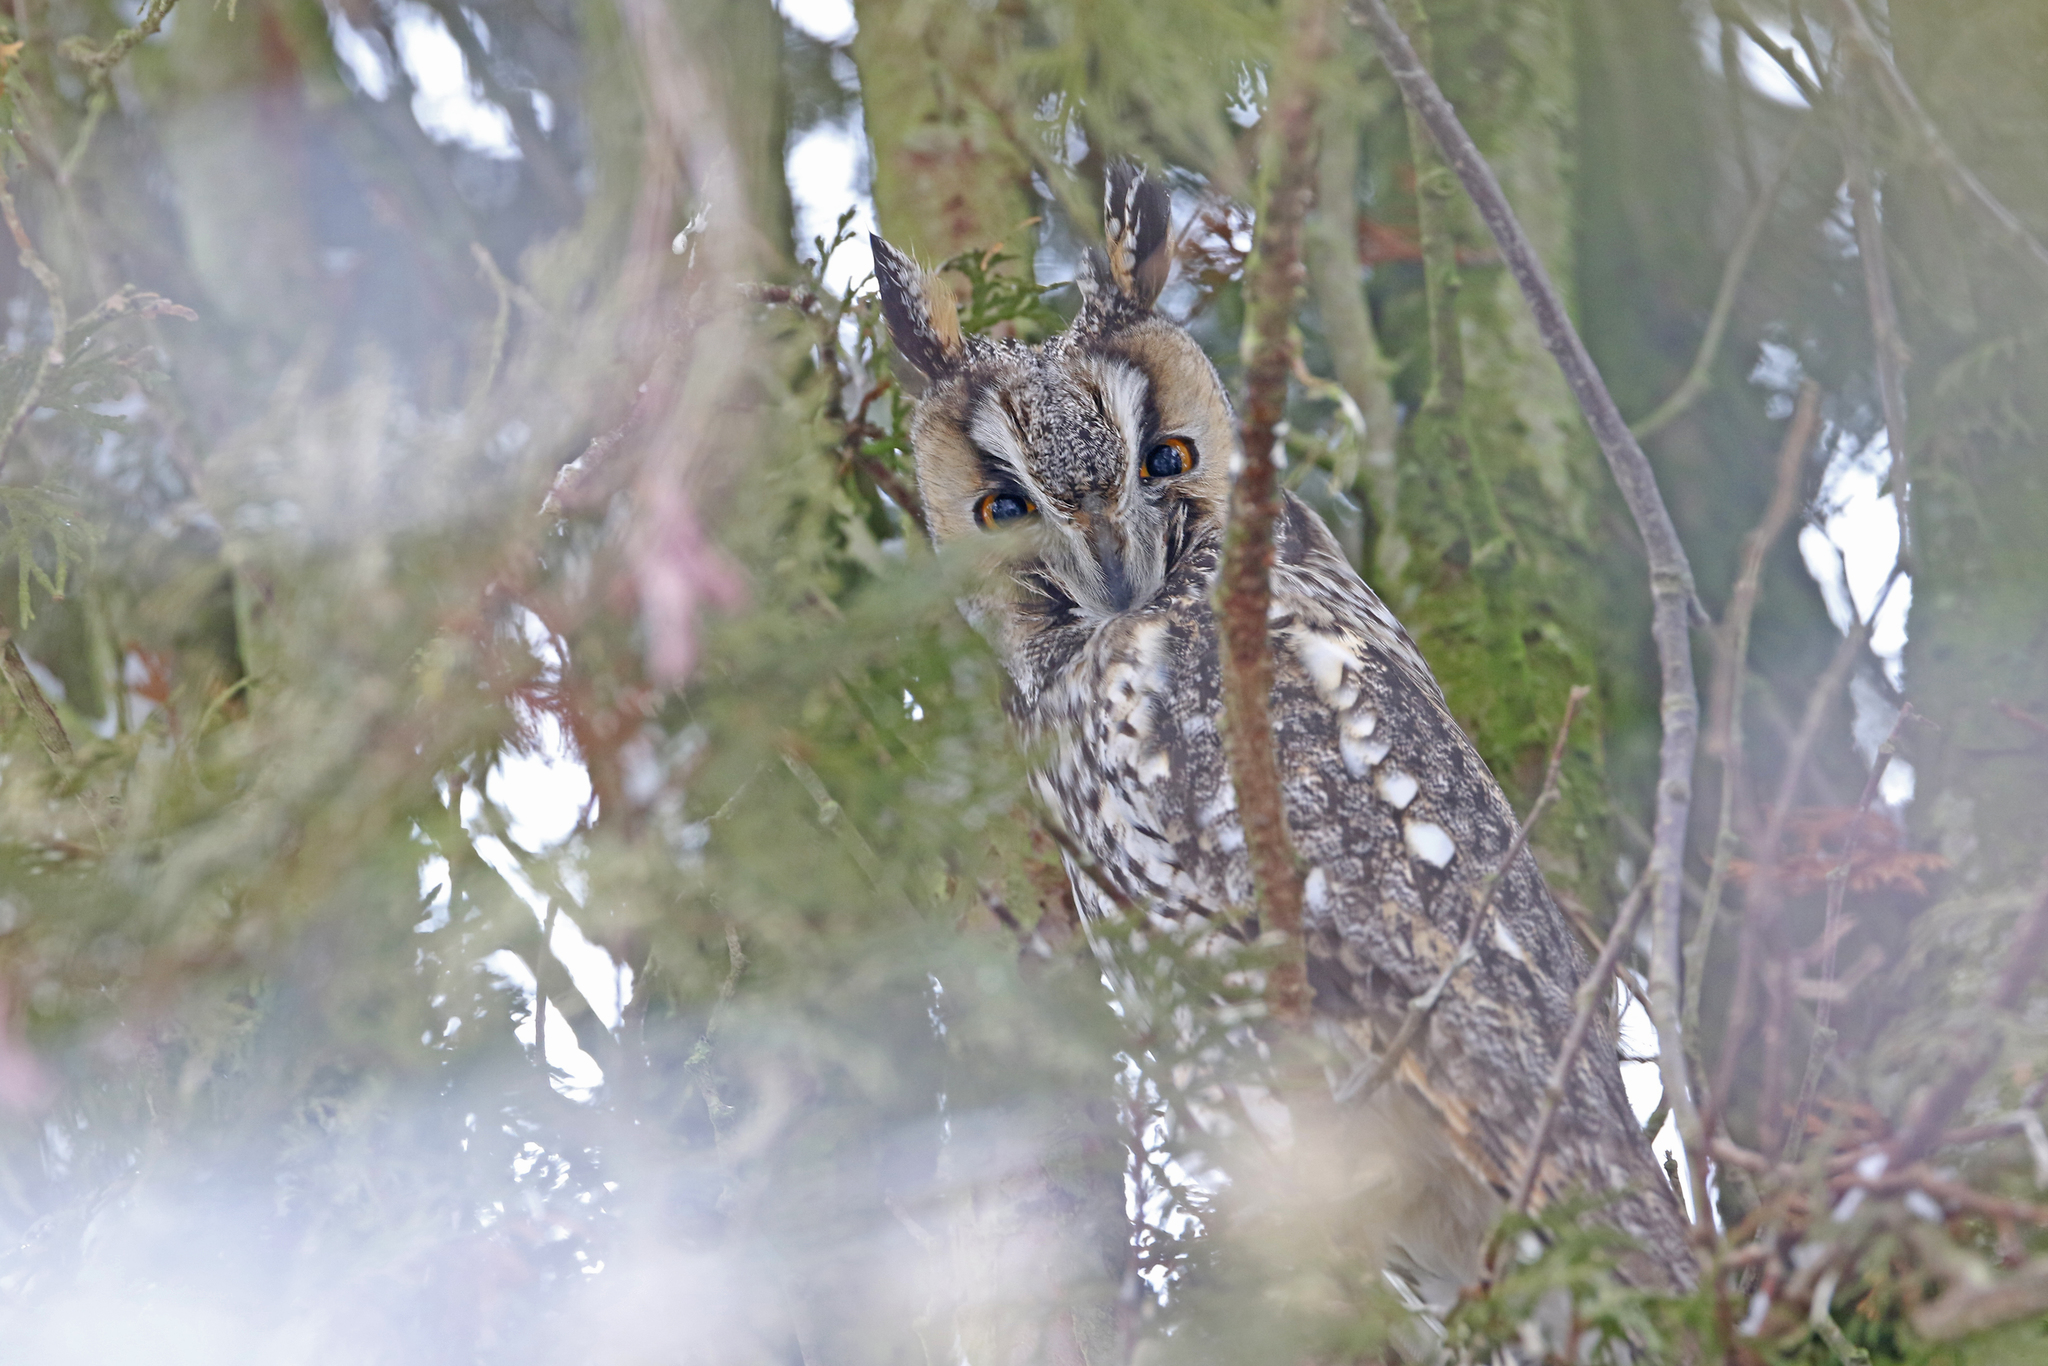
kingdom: Animalia
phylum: Chordata
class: Aves
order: Strigiformes
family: Strigidae
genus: Asio
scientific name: Asio otus
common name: Long-eared owl
